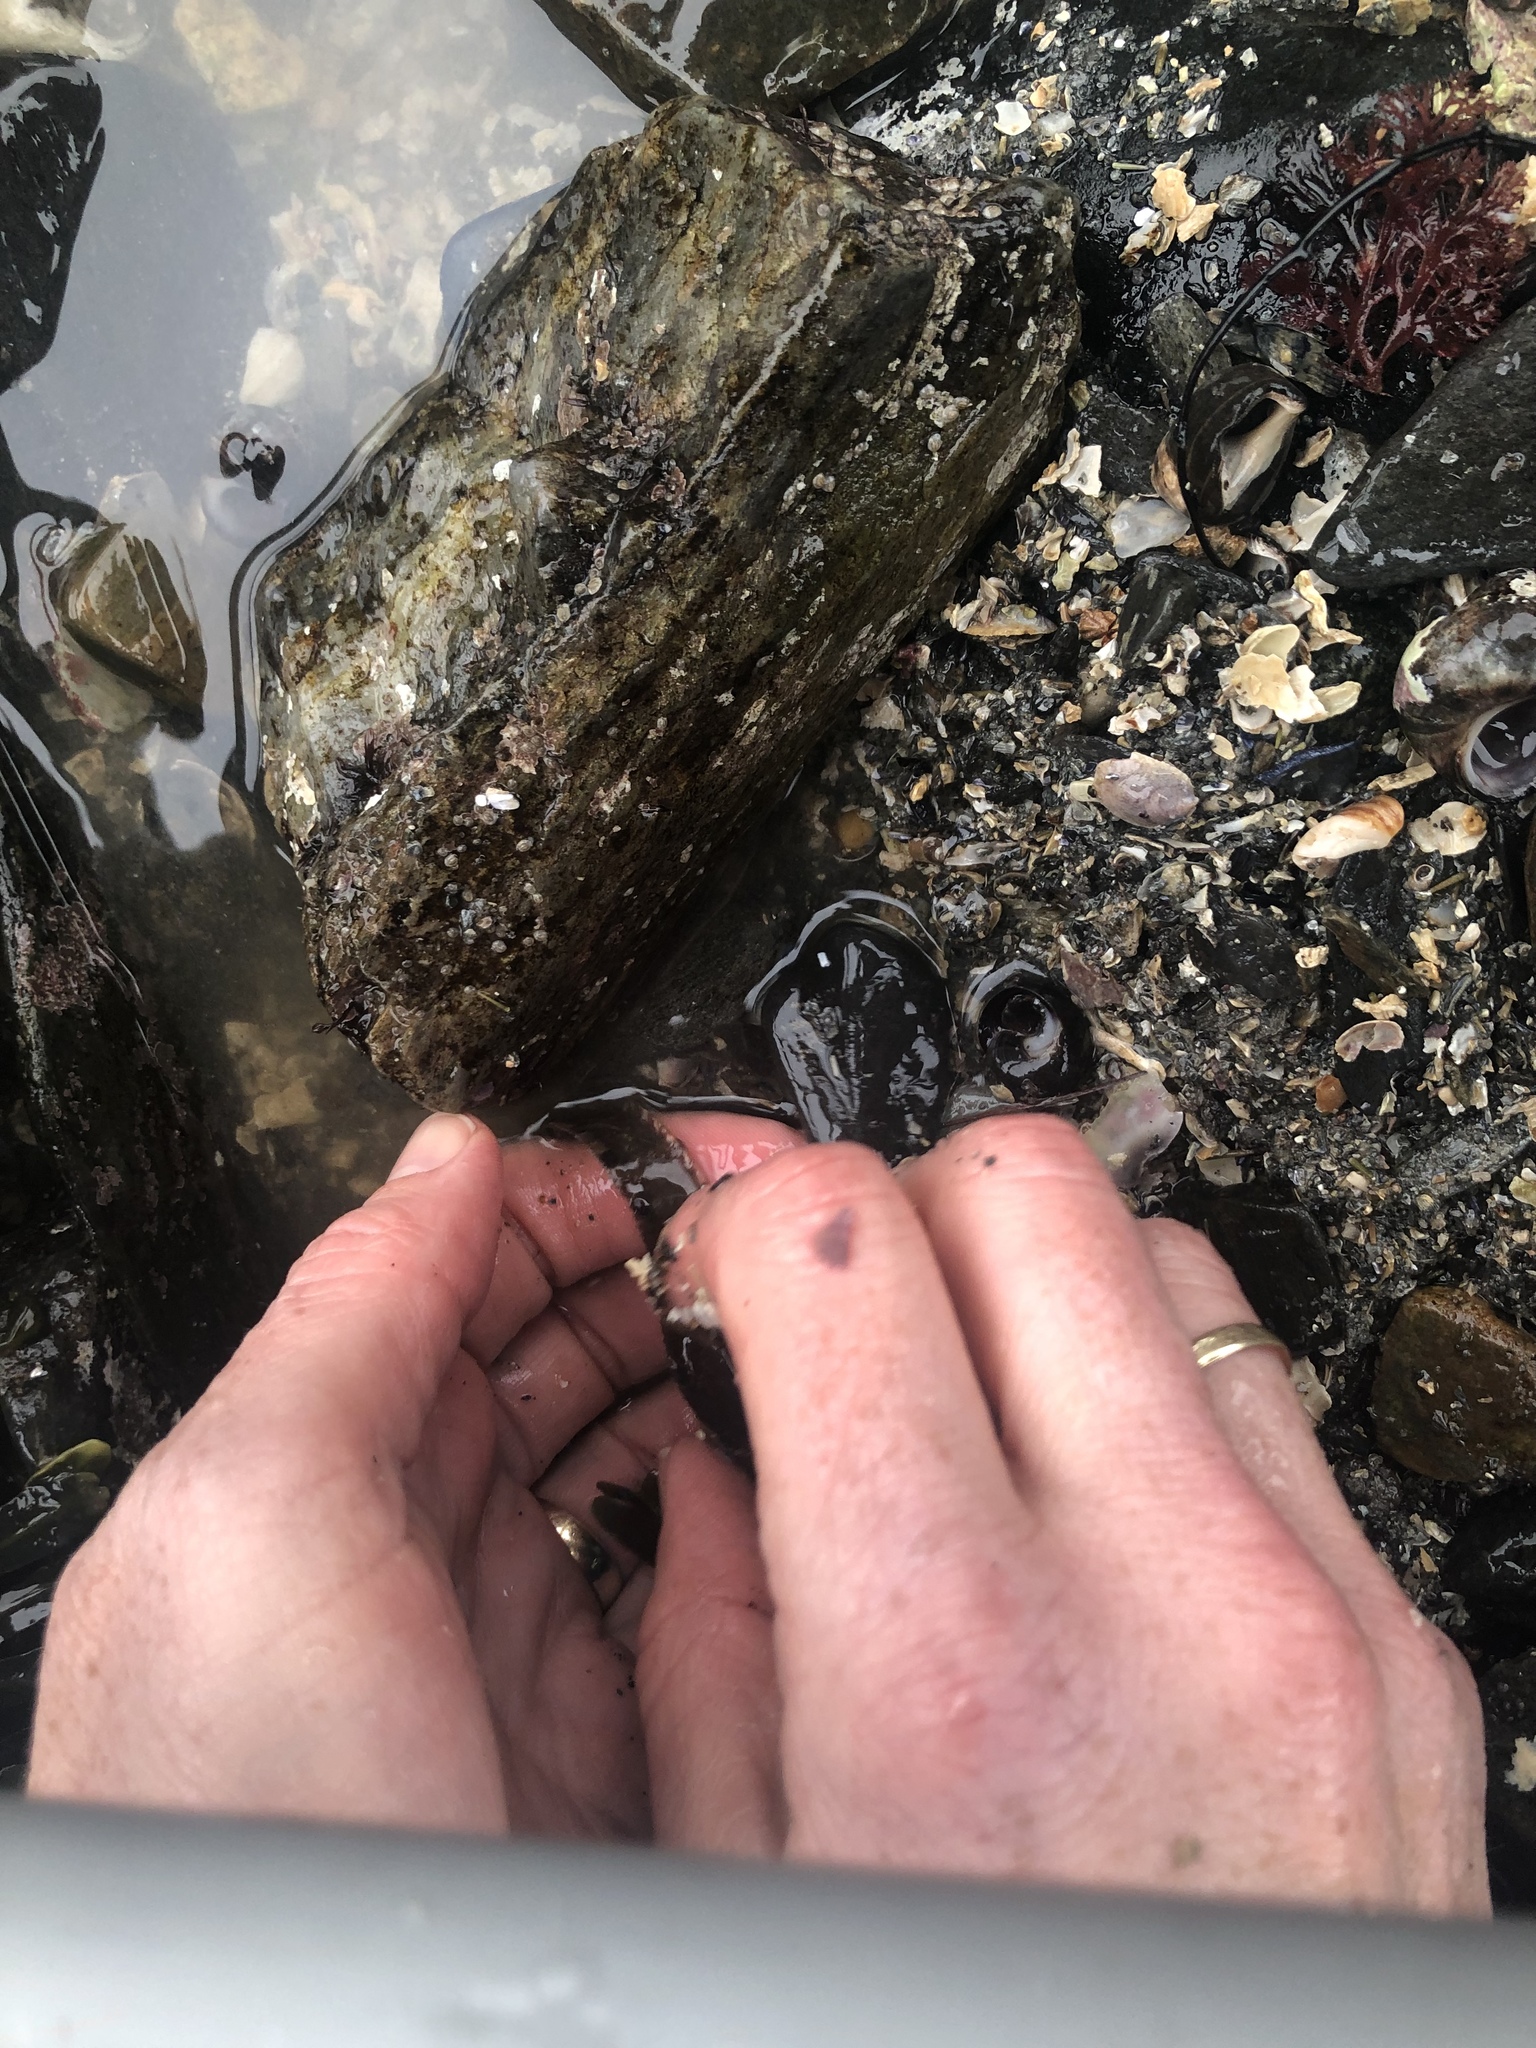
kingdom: Animalia
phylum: Chordata
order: Perciformes
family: Pholidae
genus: Pholis
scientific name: Pholis gunnellus
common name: Butterfish
